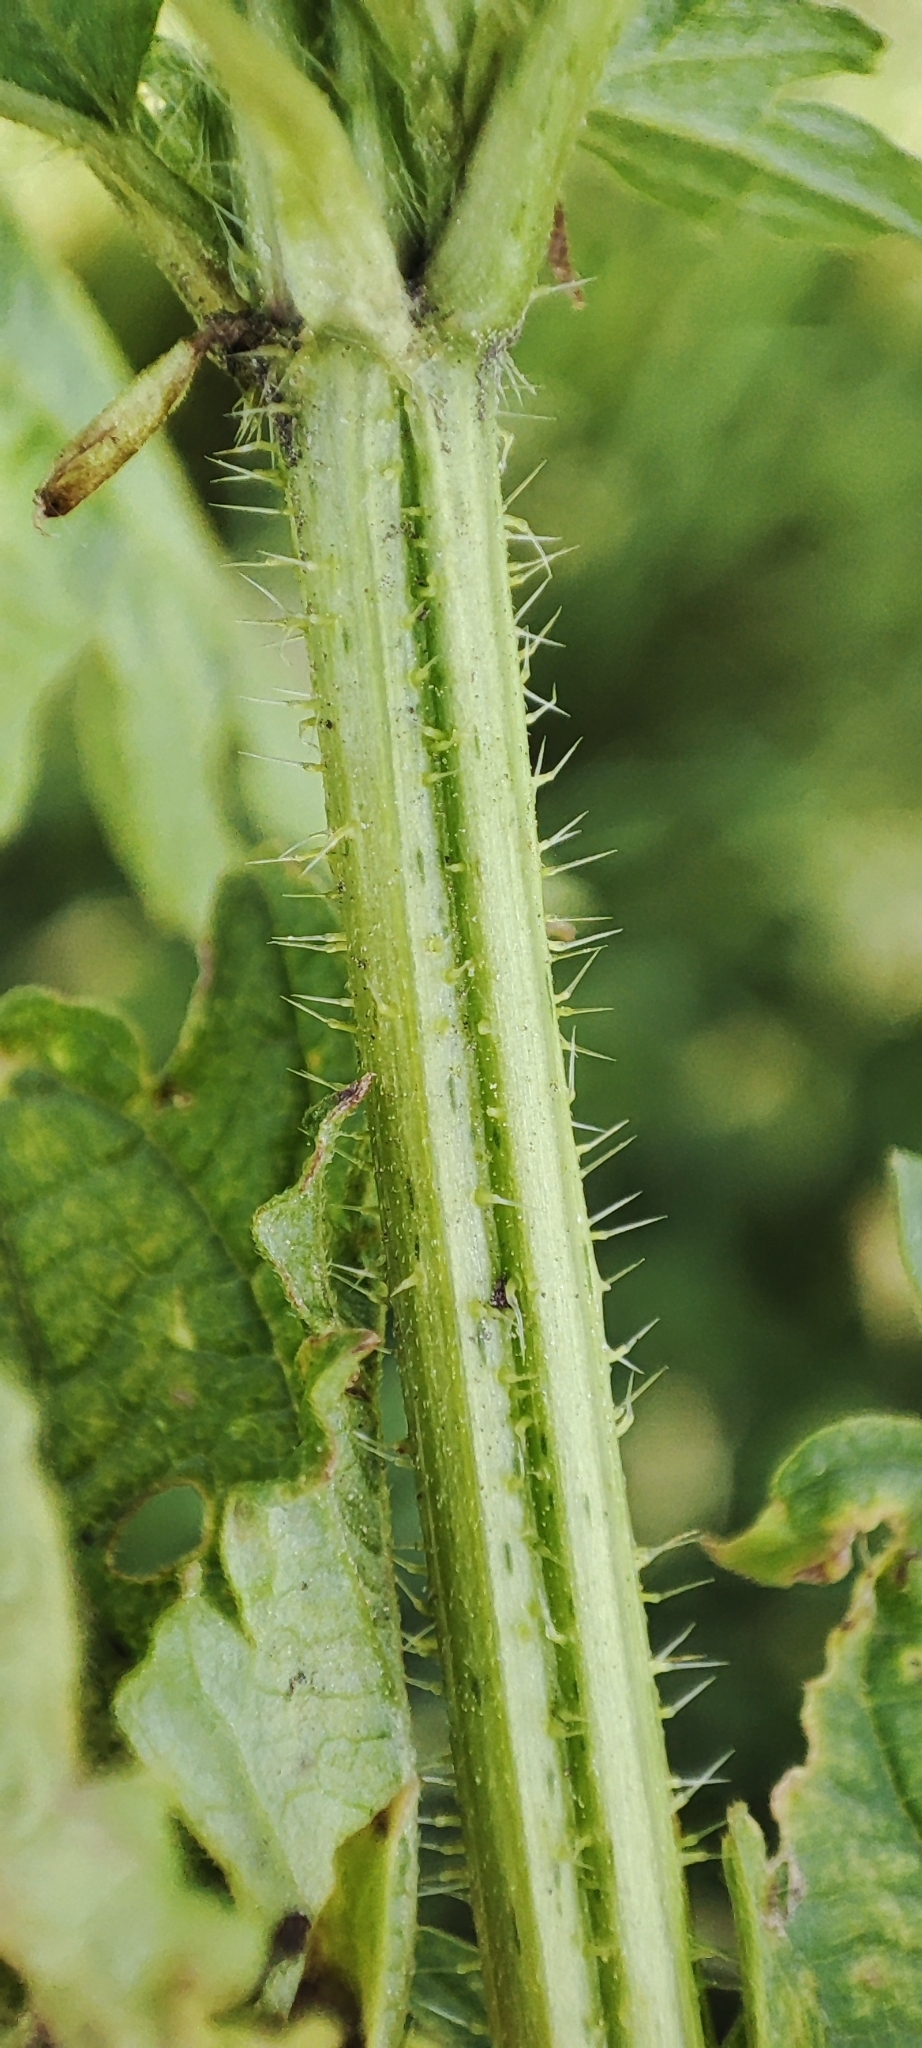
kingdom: Plantae
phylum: Tracheophyta
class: Magnoliopsida
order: Rosales
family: Urticaceae
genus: Urtica
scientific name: Urtica dioica
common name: Common nettle
